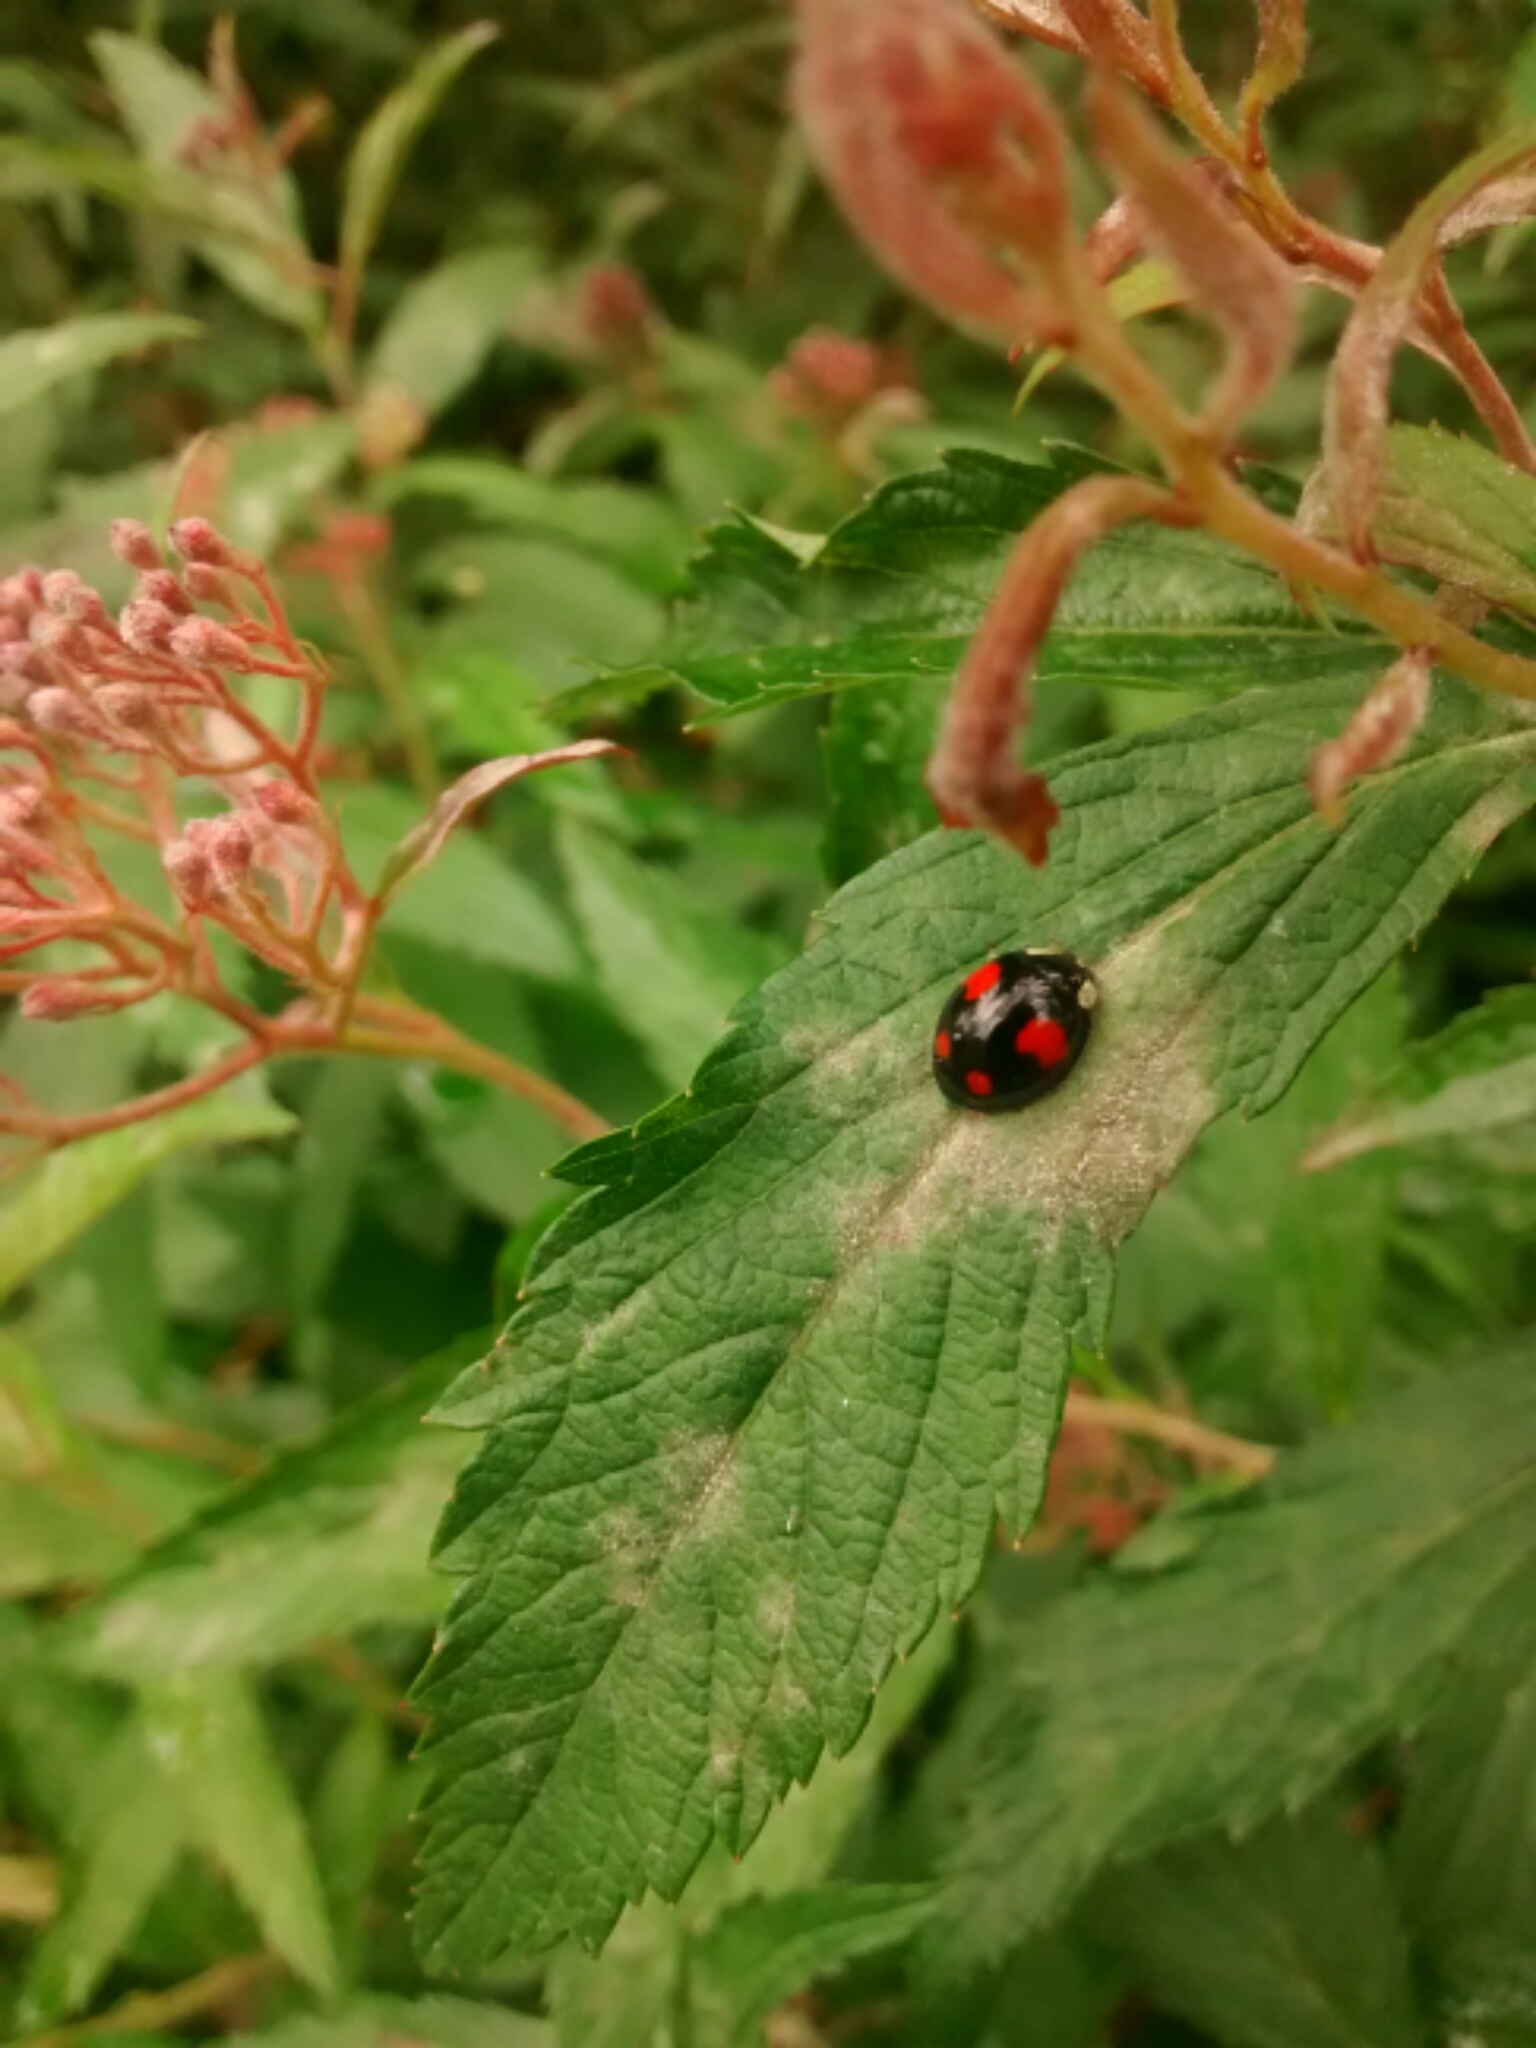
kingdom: Animalia
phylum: Arthropoda
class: Insecta
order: Coleoptera
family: Coccinellidae
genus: Harmonia
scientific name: Harmonia axyridis
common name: Harlequin ladybird
